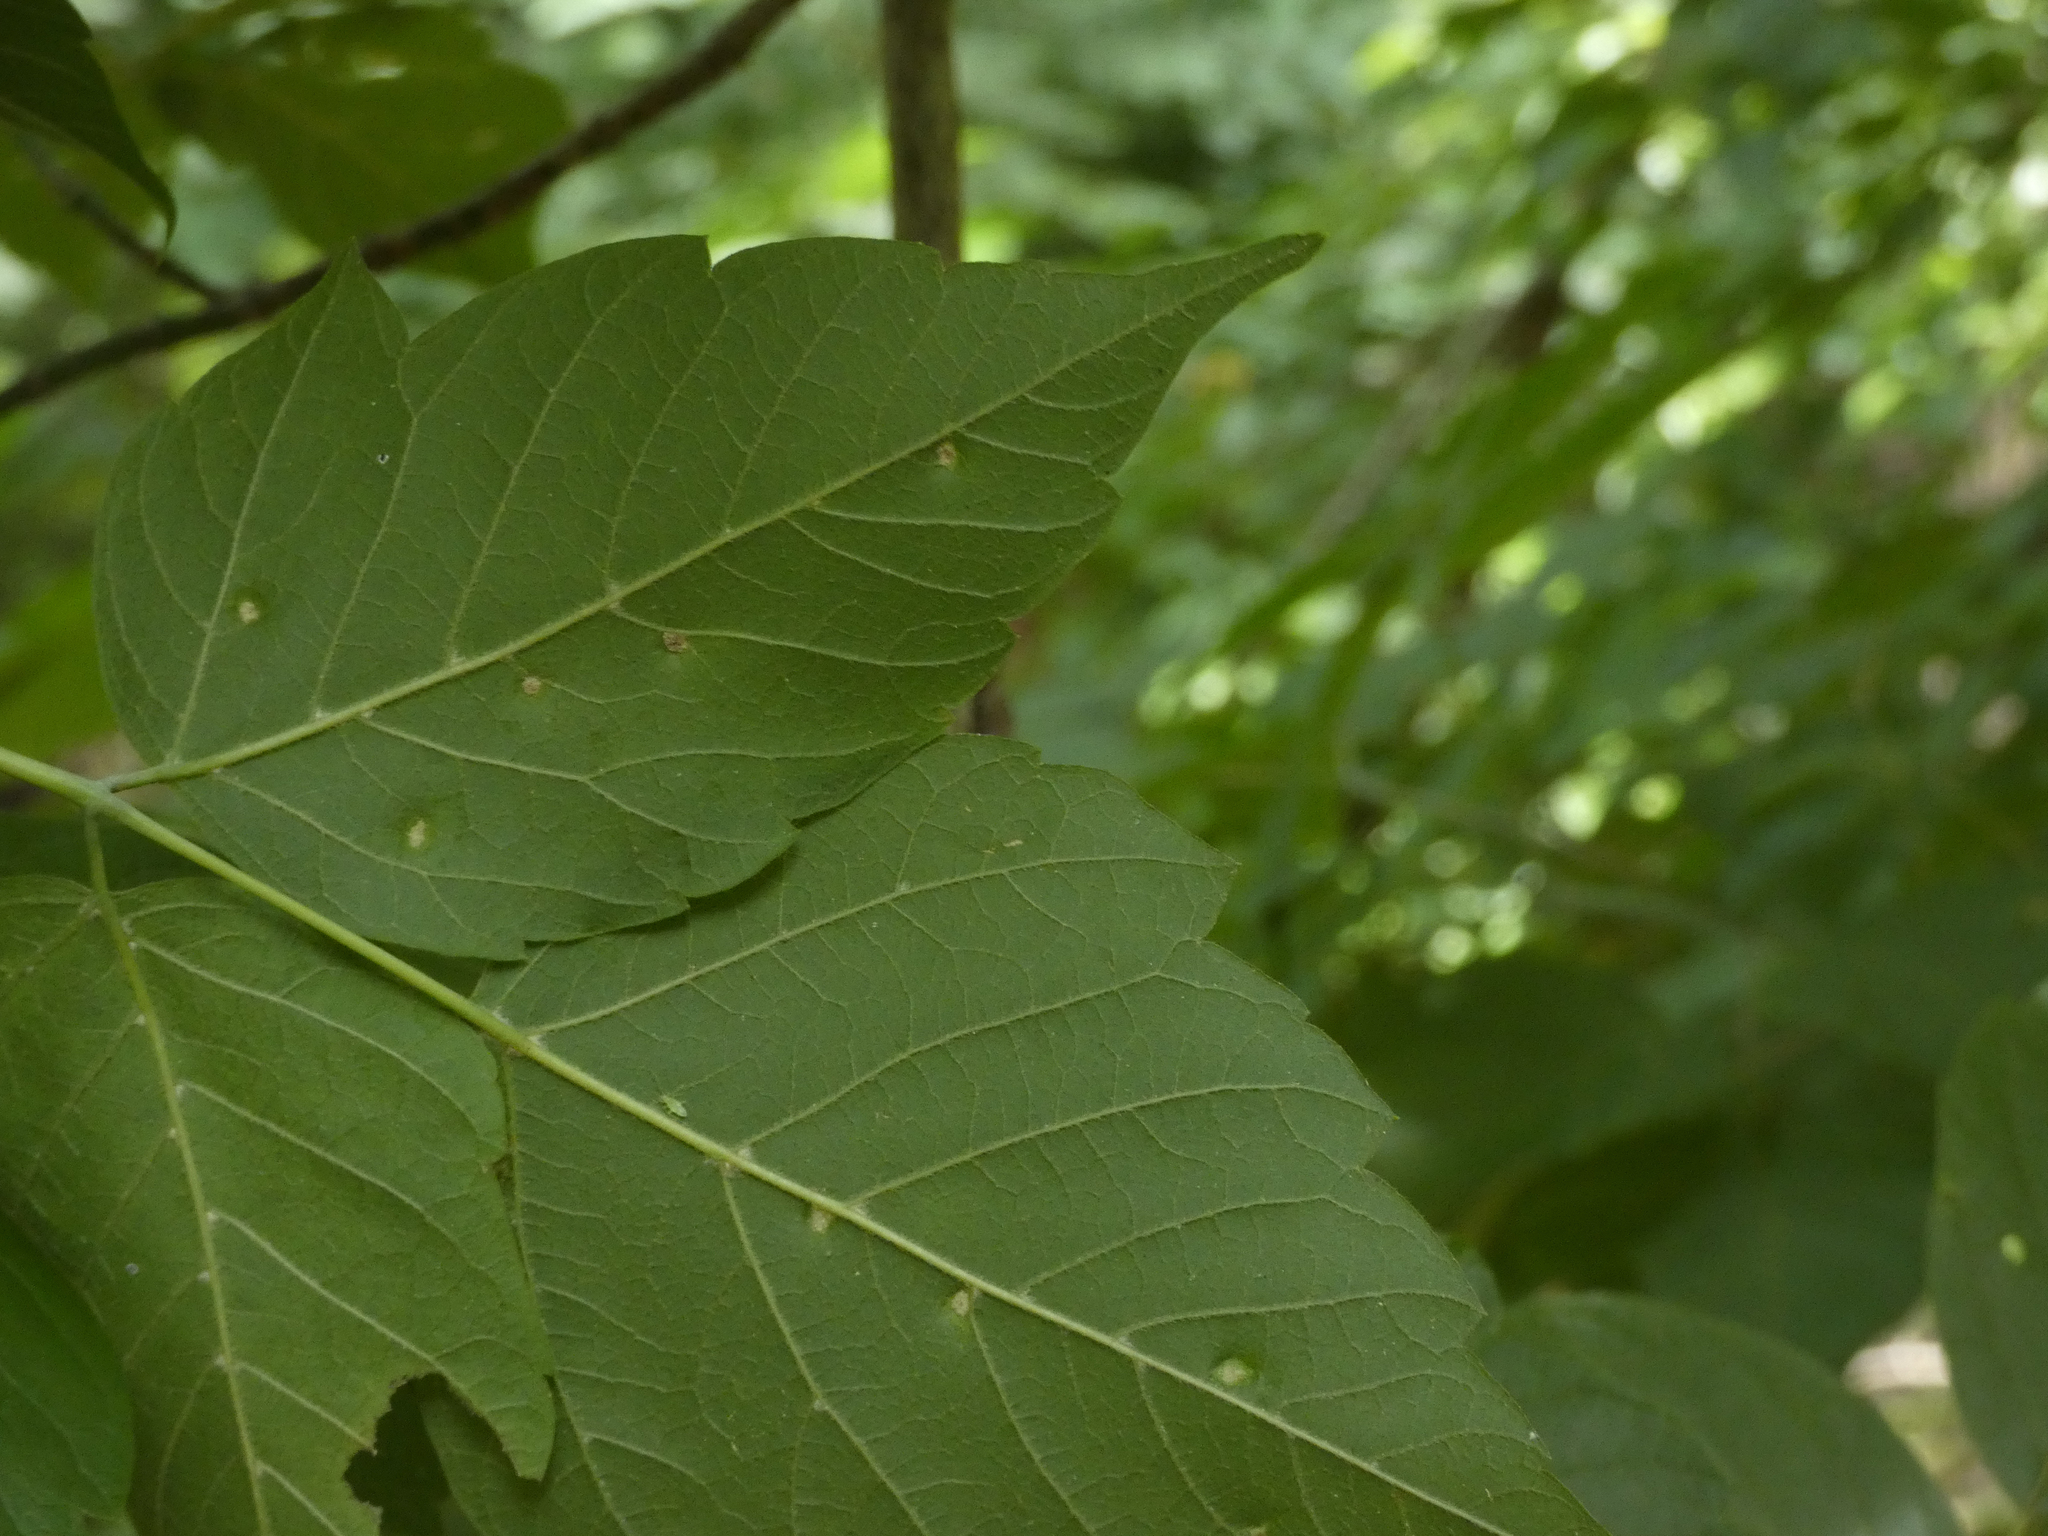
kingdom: Animalia
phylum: Arthropoda
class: Arachnida
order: Trombidiformes
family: Eriophyidae
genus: Aceria
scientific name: Aceria
